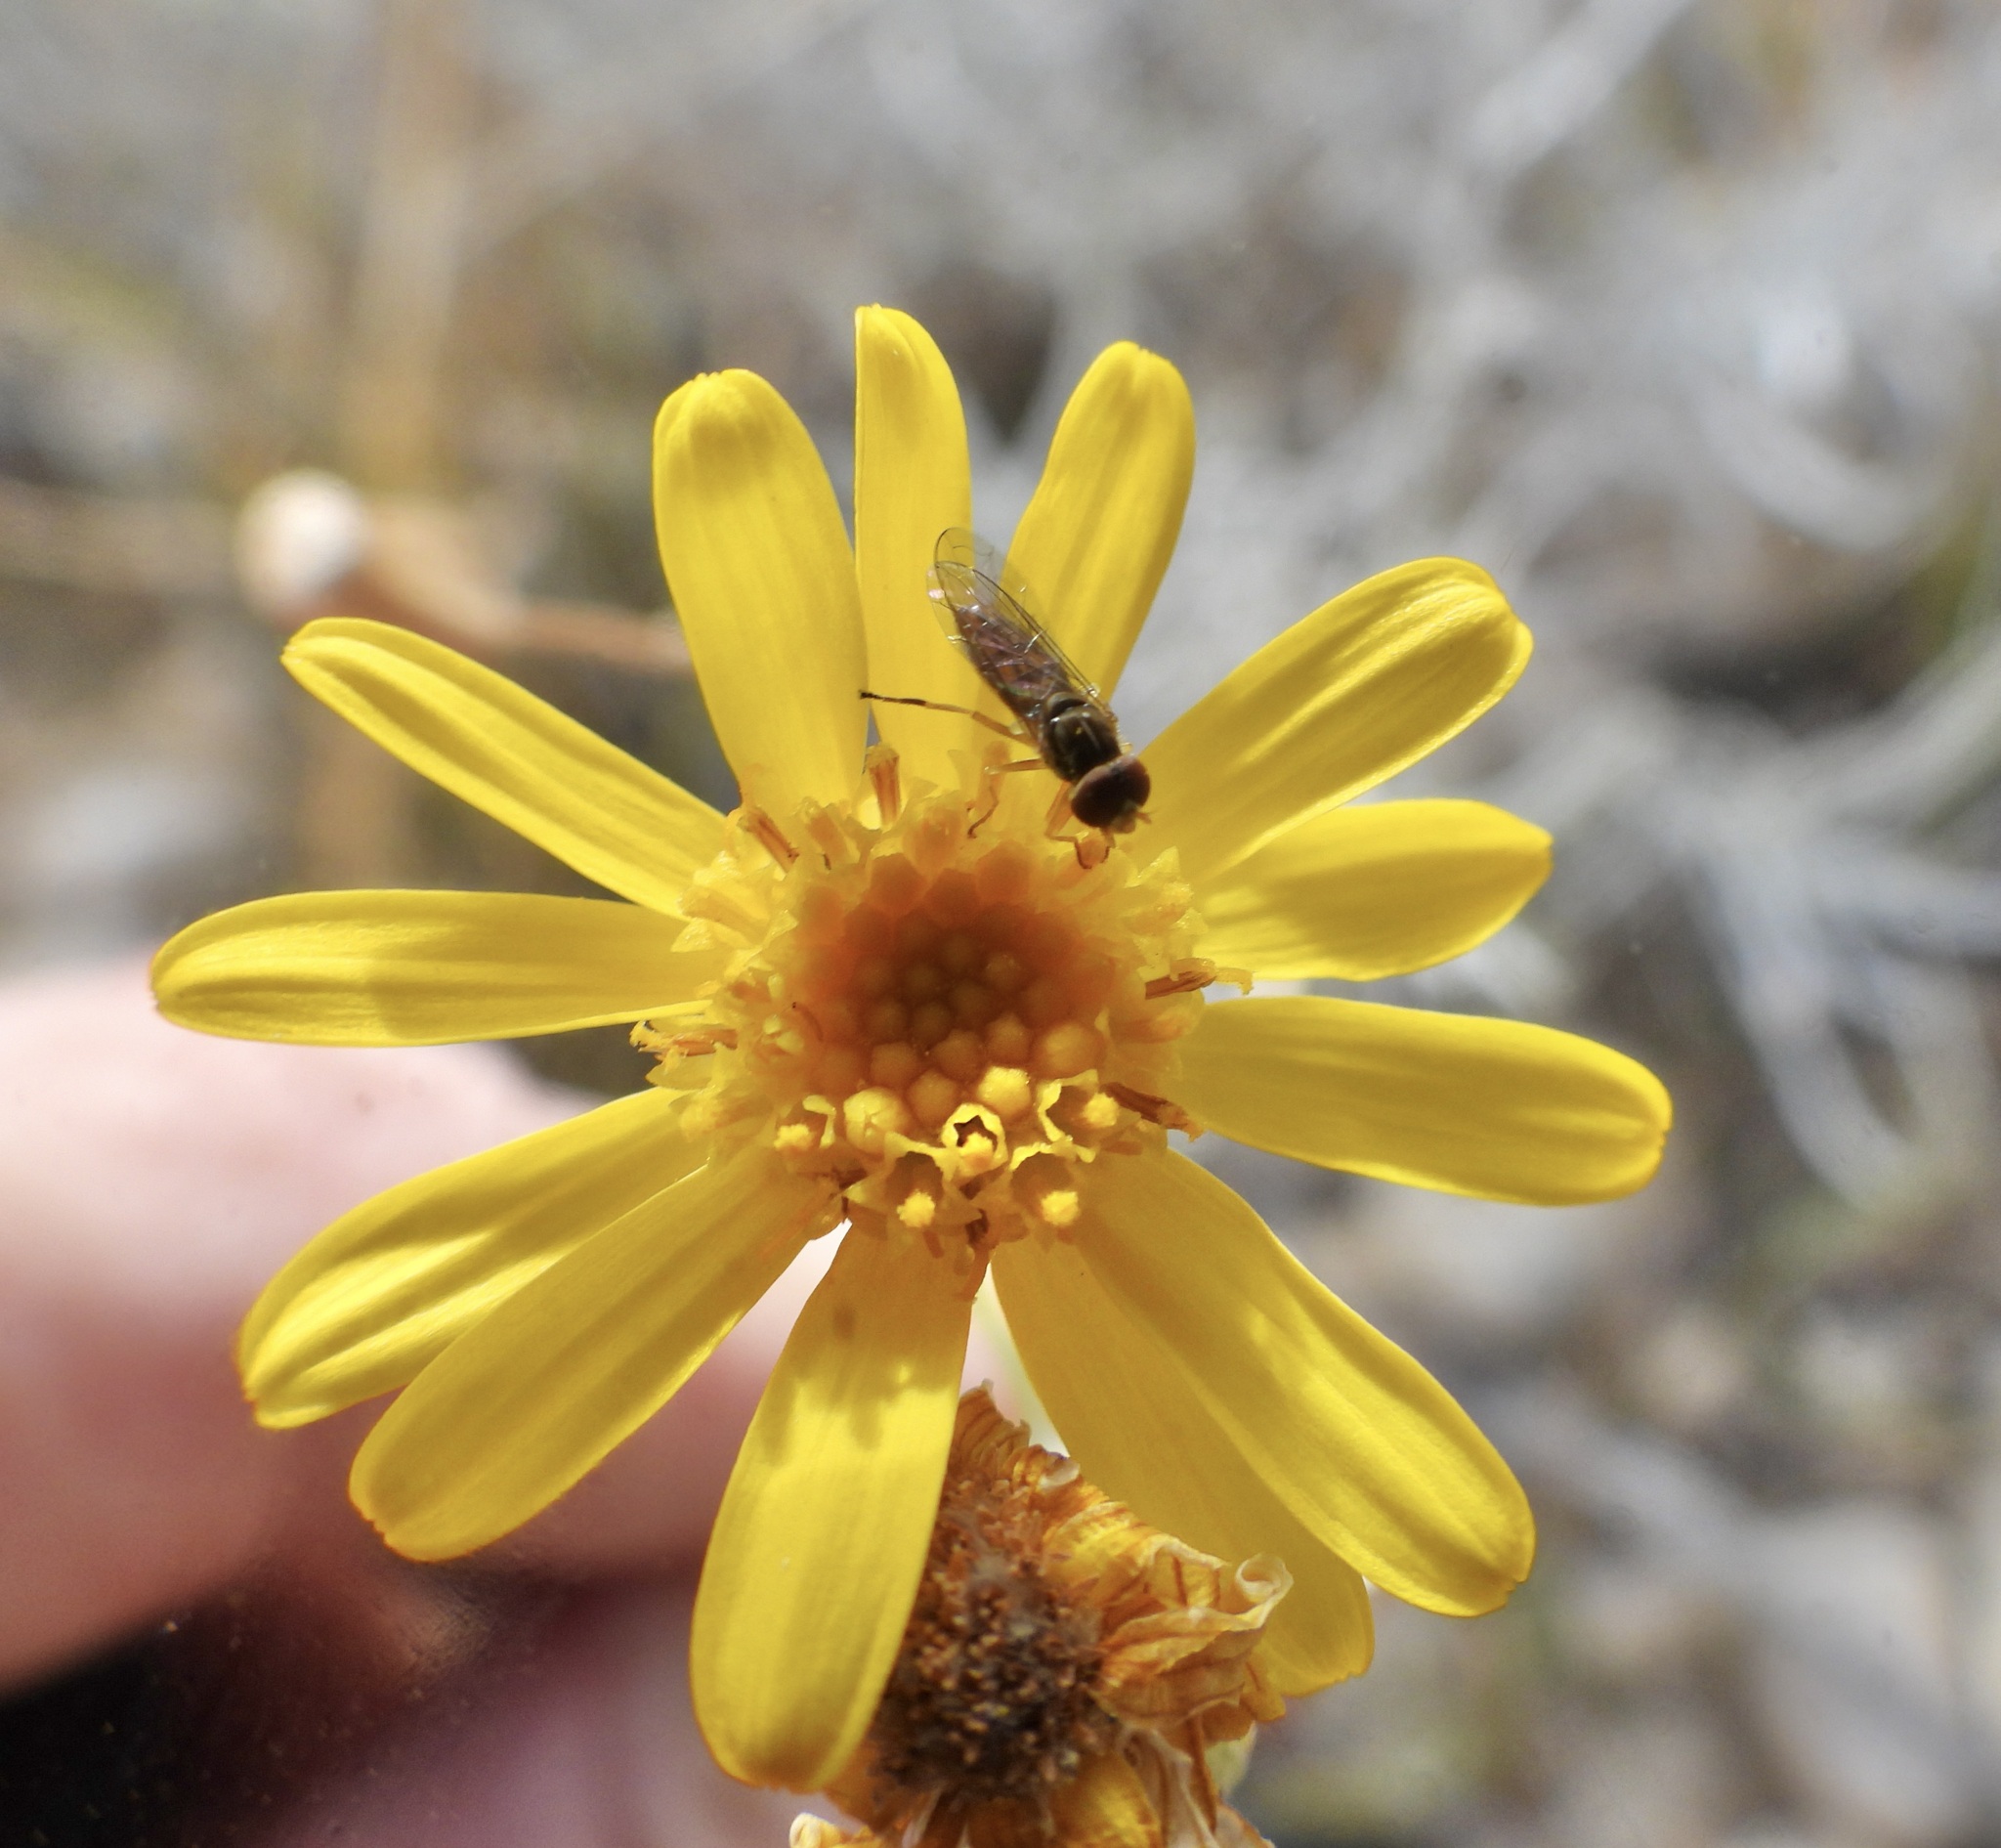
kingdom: Plantae
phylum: Tracheophyta
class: Magnoliopsida
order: Asterales
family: Asteraceae
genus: Senecio
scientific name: Senecio flaccidus
